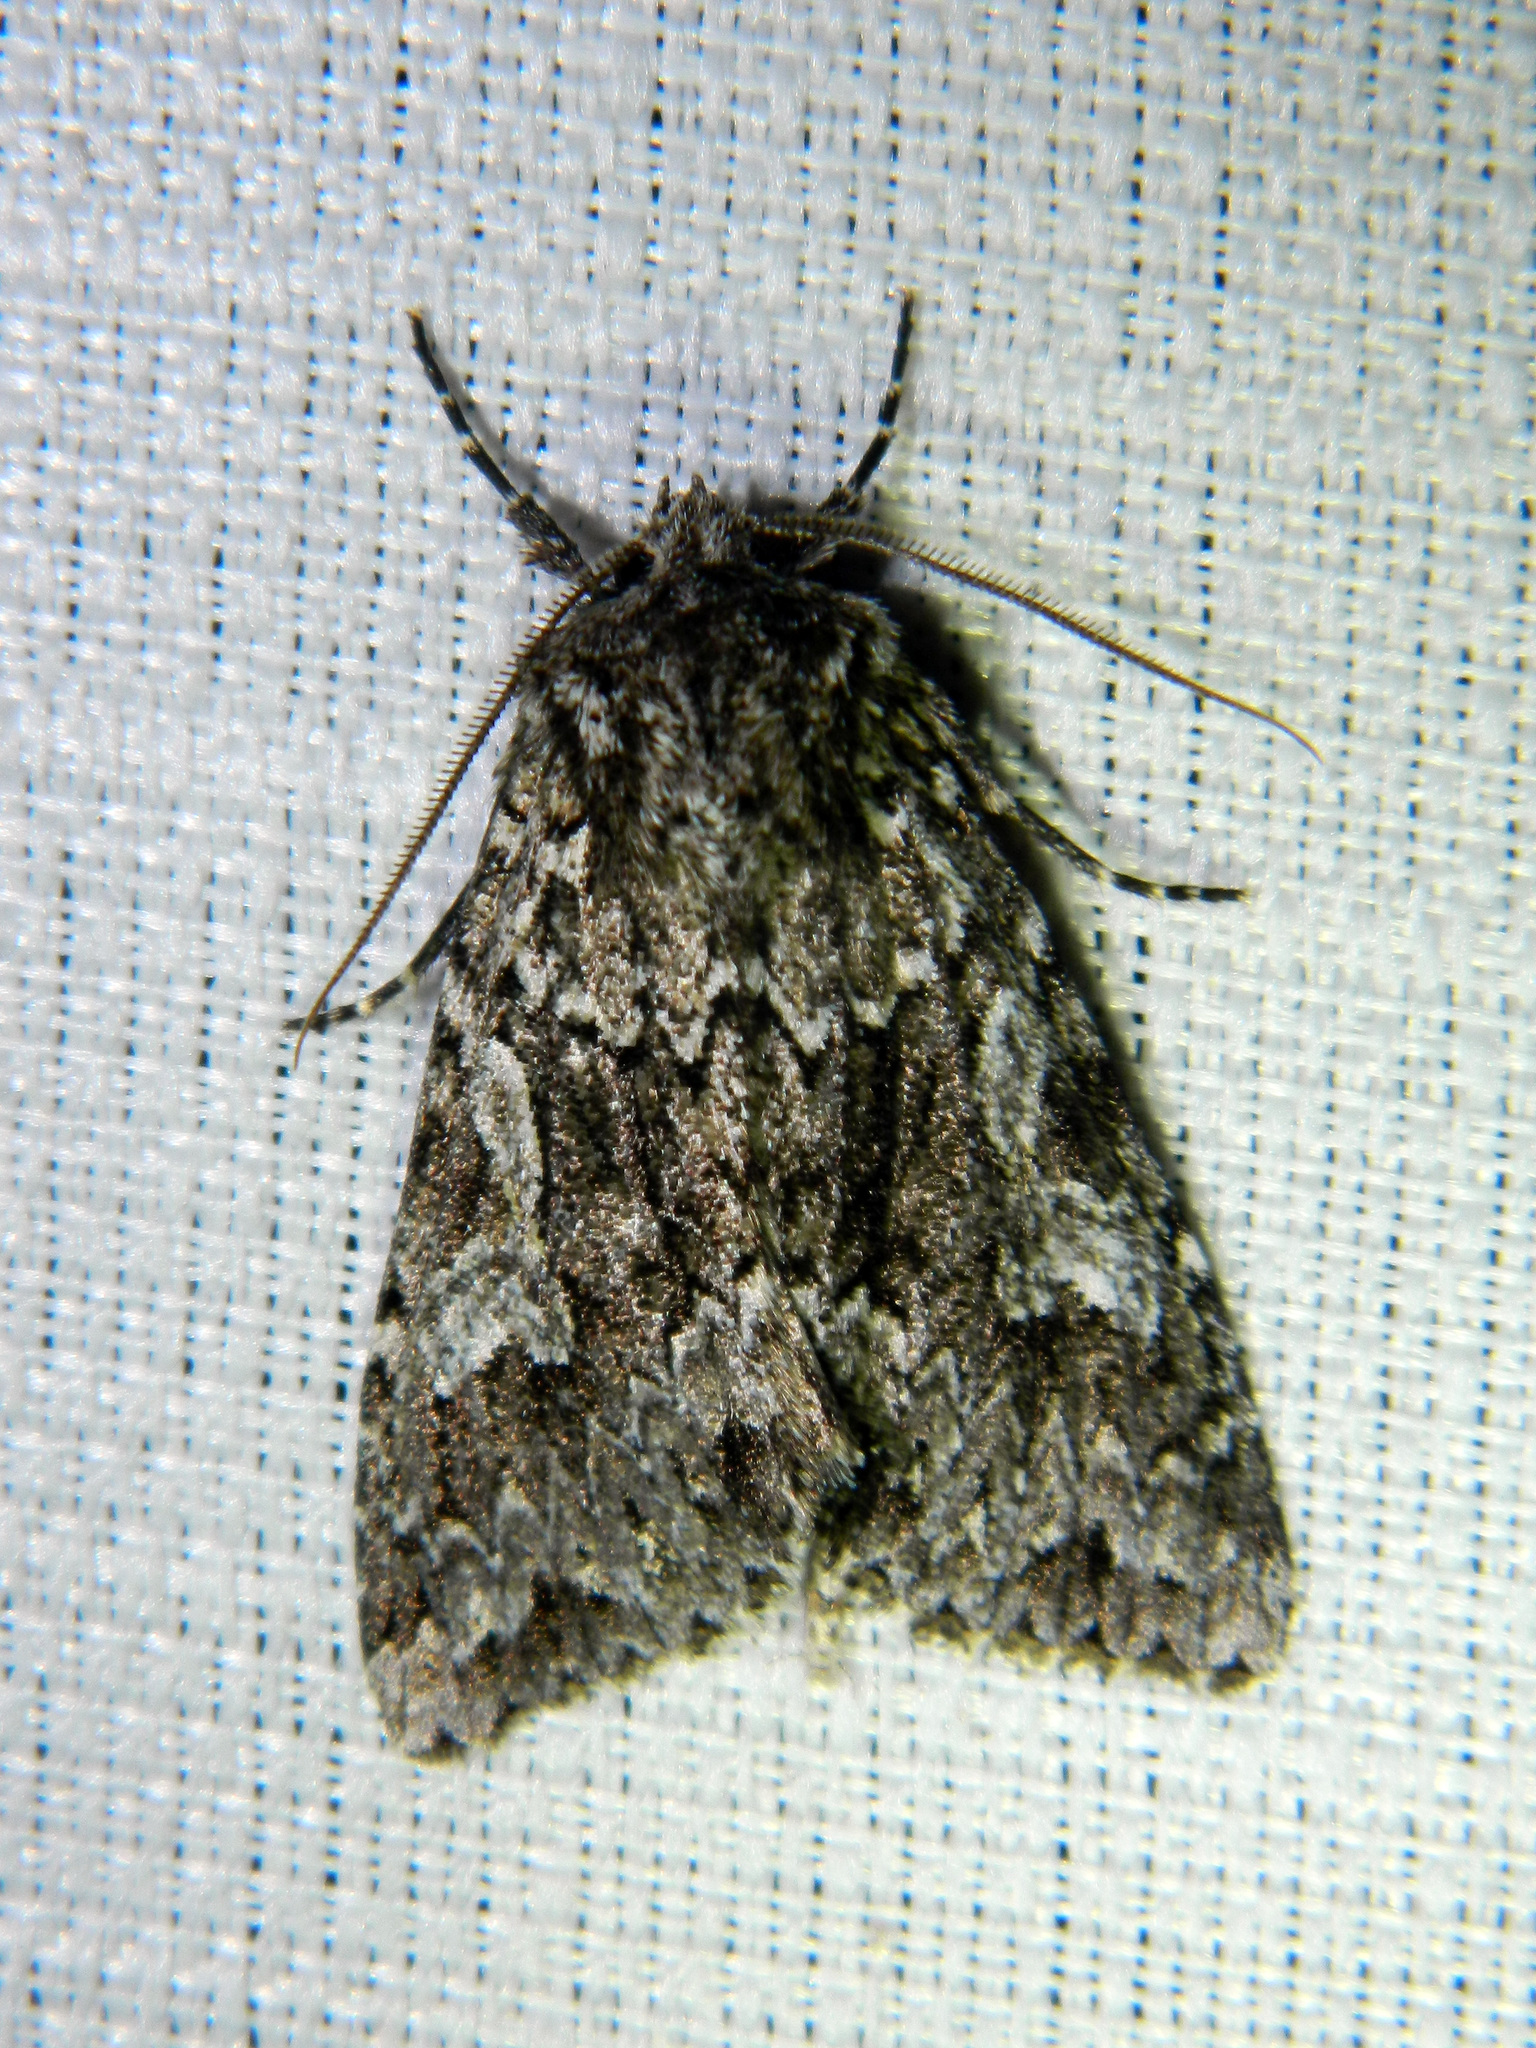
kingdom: Animalia
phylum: Arthropoda
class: Insecta
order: Lepidoptera
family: Noctuidae
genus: Platypolia
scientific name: Platypolia anceps
